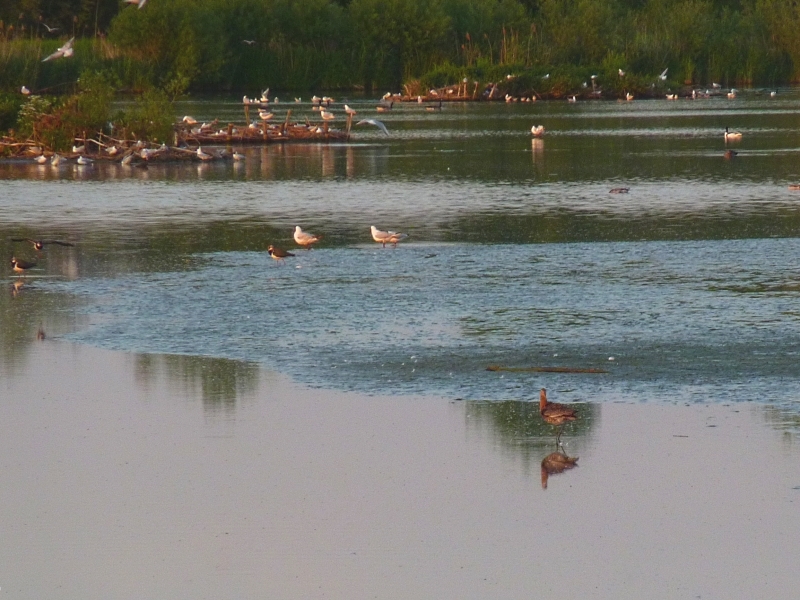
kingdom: Animalia
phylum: Chordata
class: Aves
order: Charadriiformes
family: Scolopacidae
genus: Limosa
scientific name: Limosa limosa
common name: Black-tailed godwit
